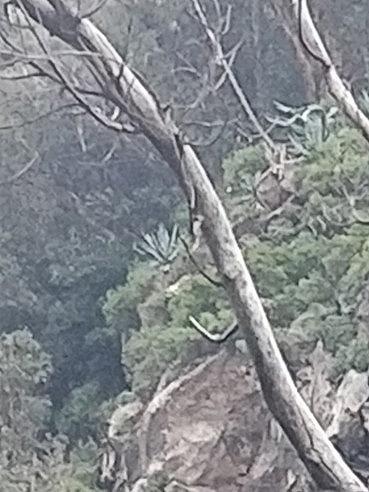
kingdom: Plantae
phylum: Tracheophyta
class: Liliopsida
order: Asparagales
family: Asparagaceae
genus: Agave
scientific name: Agave americana
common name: Centuryplant
